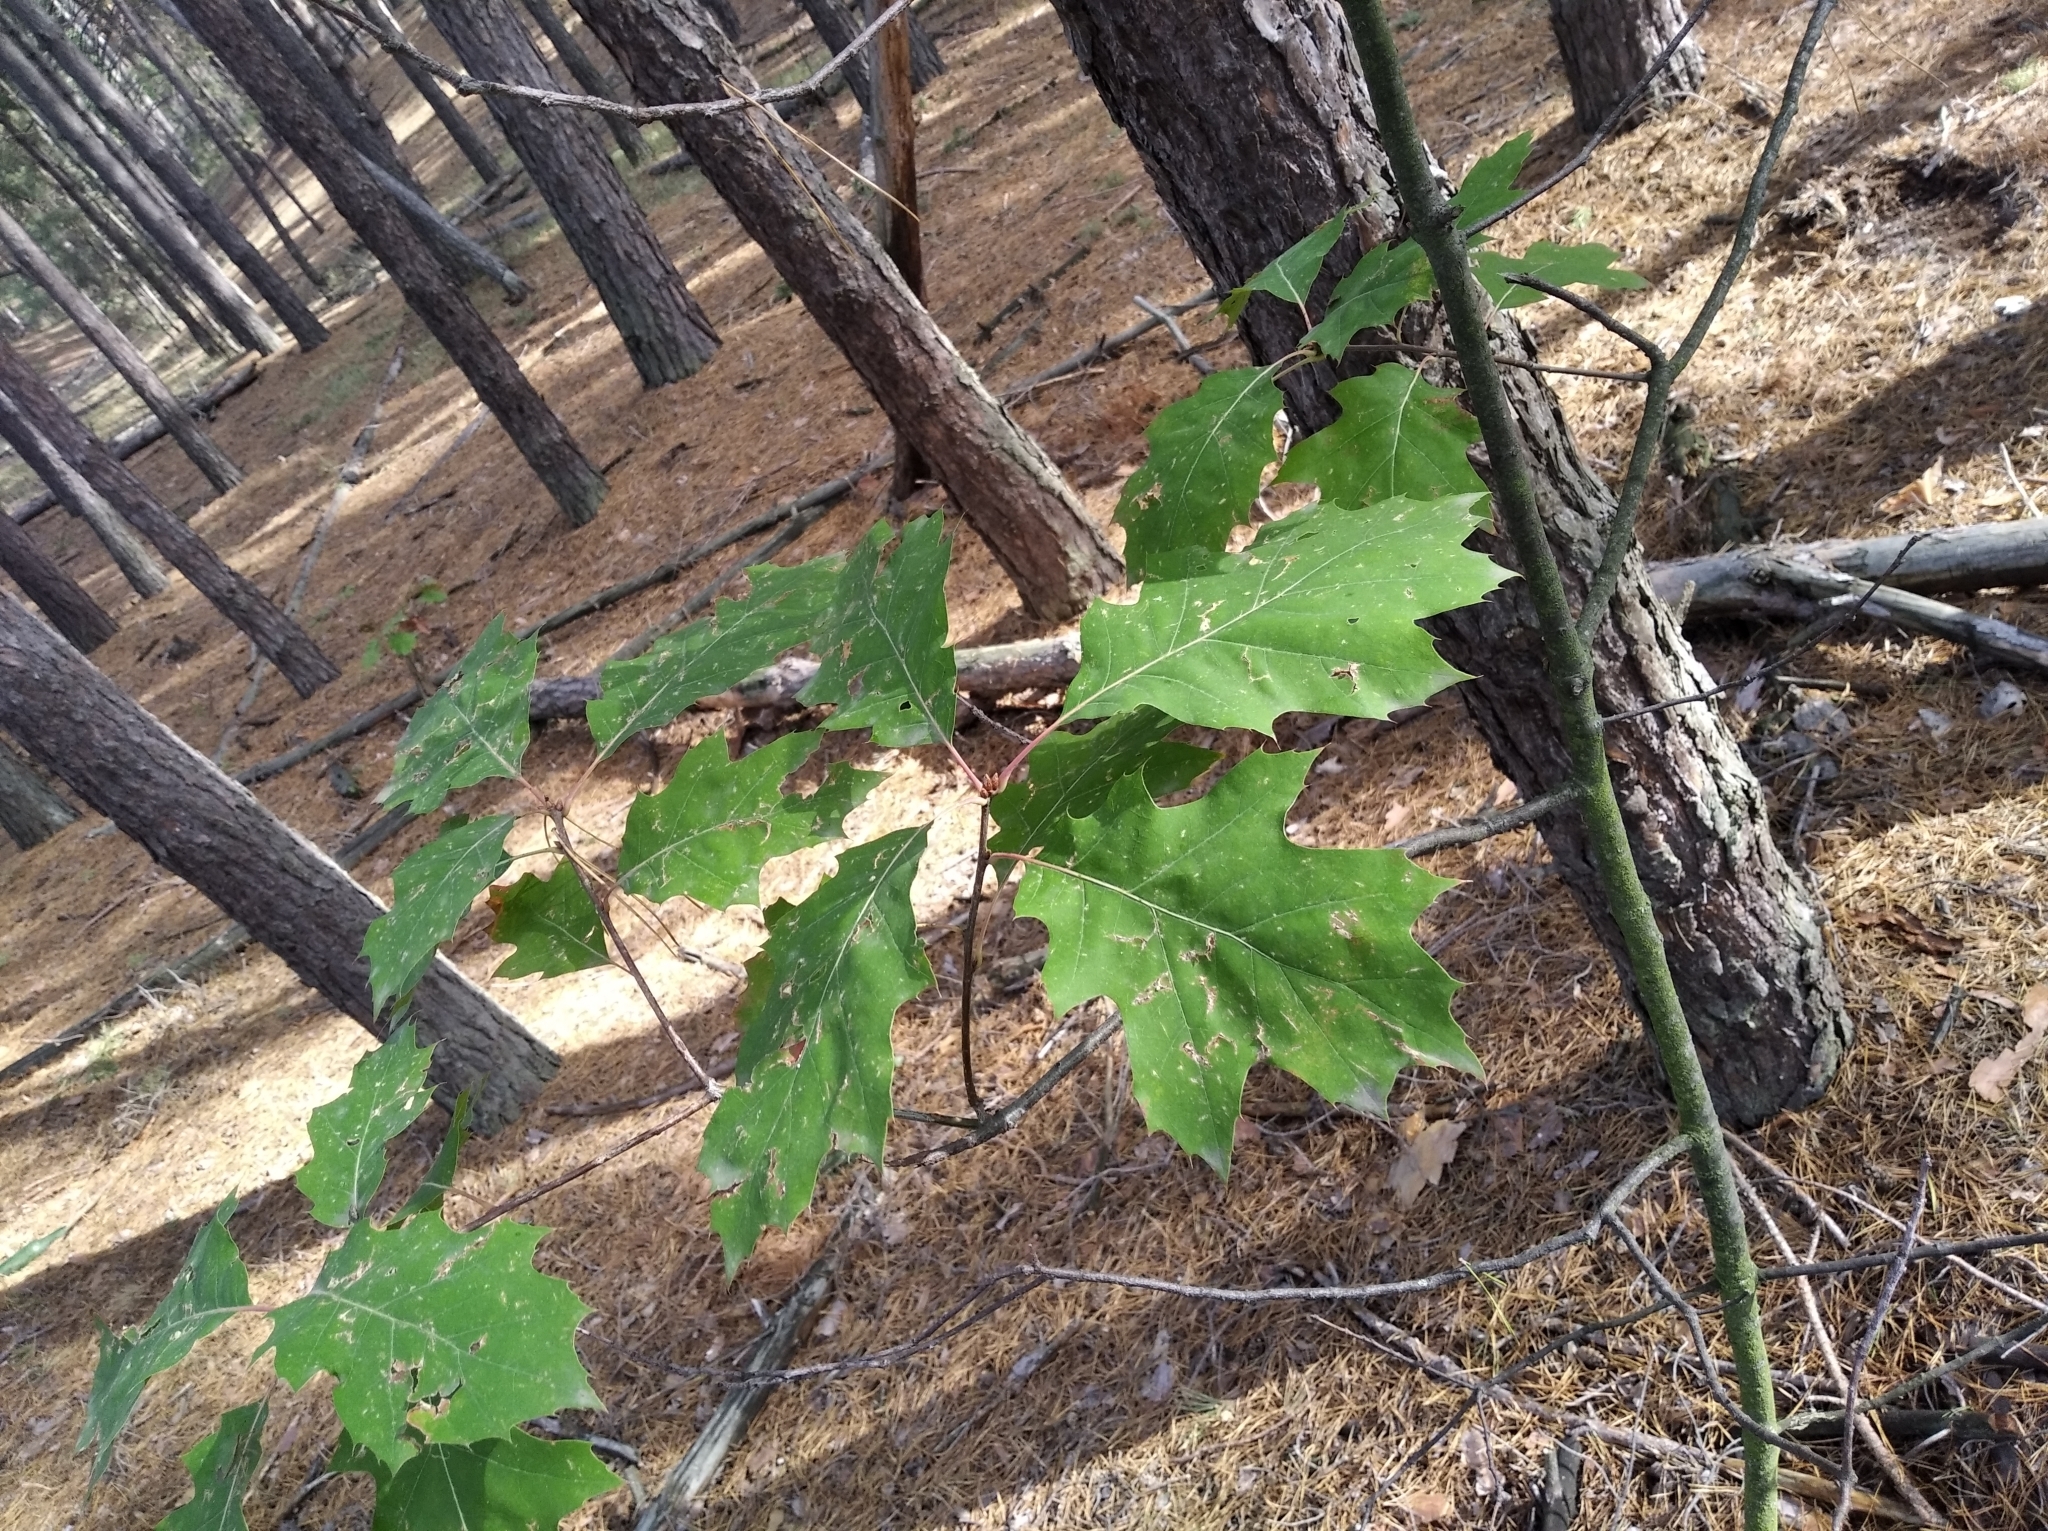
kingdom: Plantae
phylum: Tracheophyta
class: Magnoliopsida
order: Fagales
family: Fagaceae
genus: Quercus
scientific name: Quercus rubra
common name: Red oak
